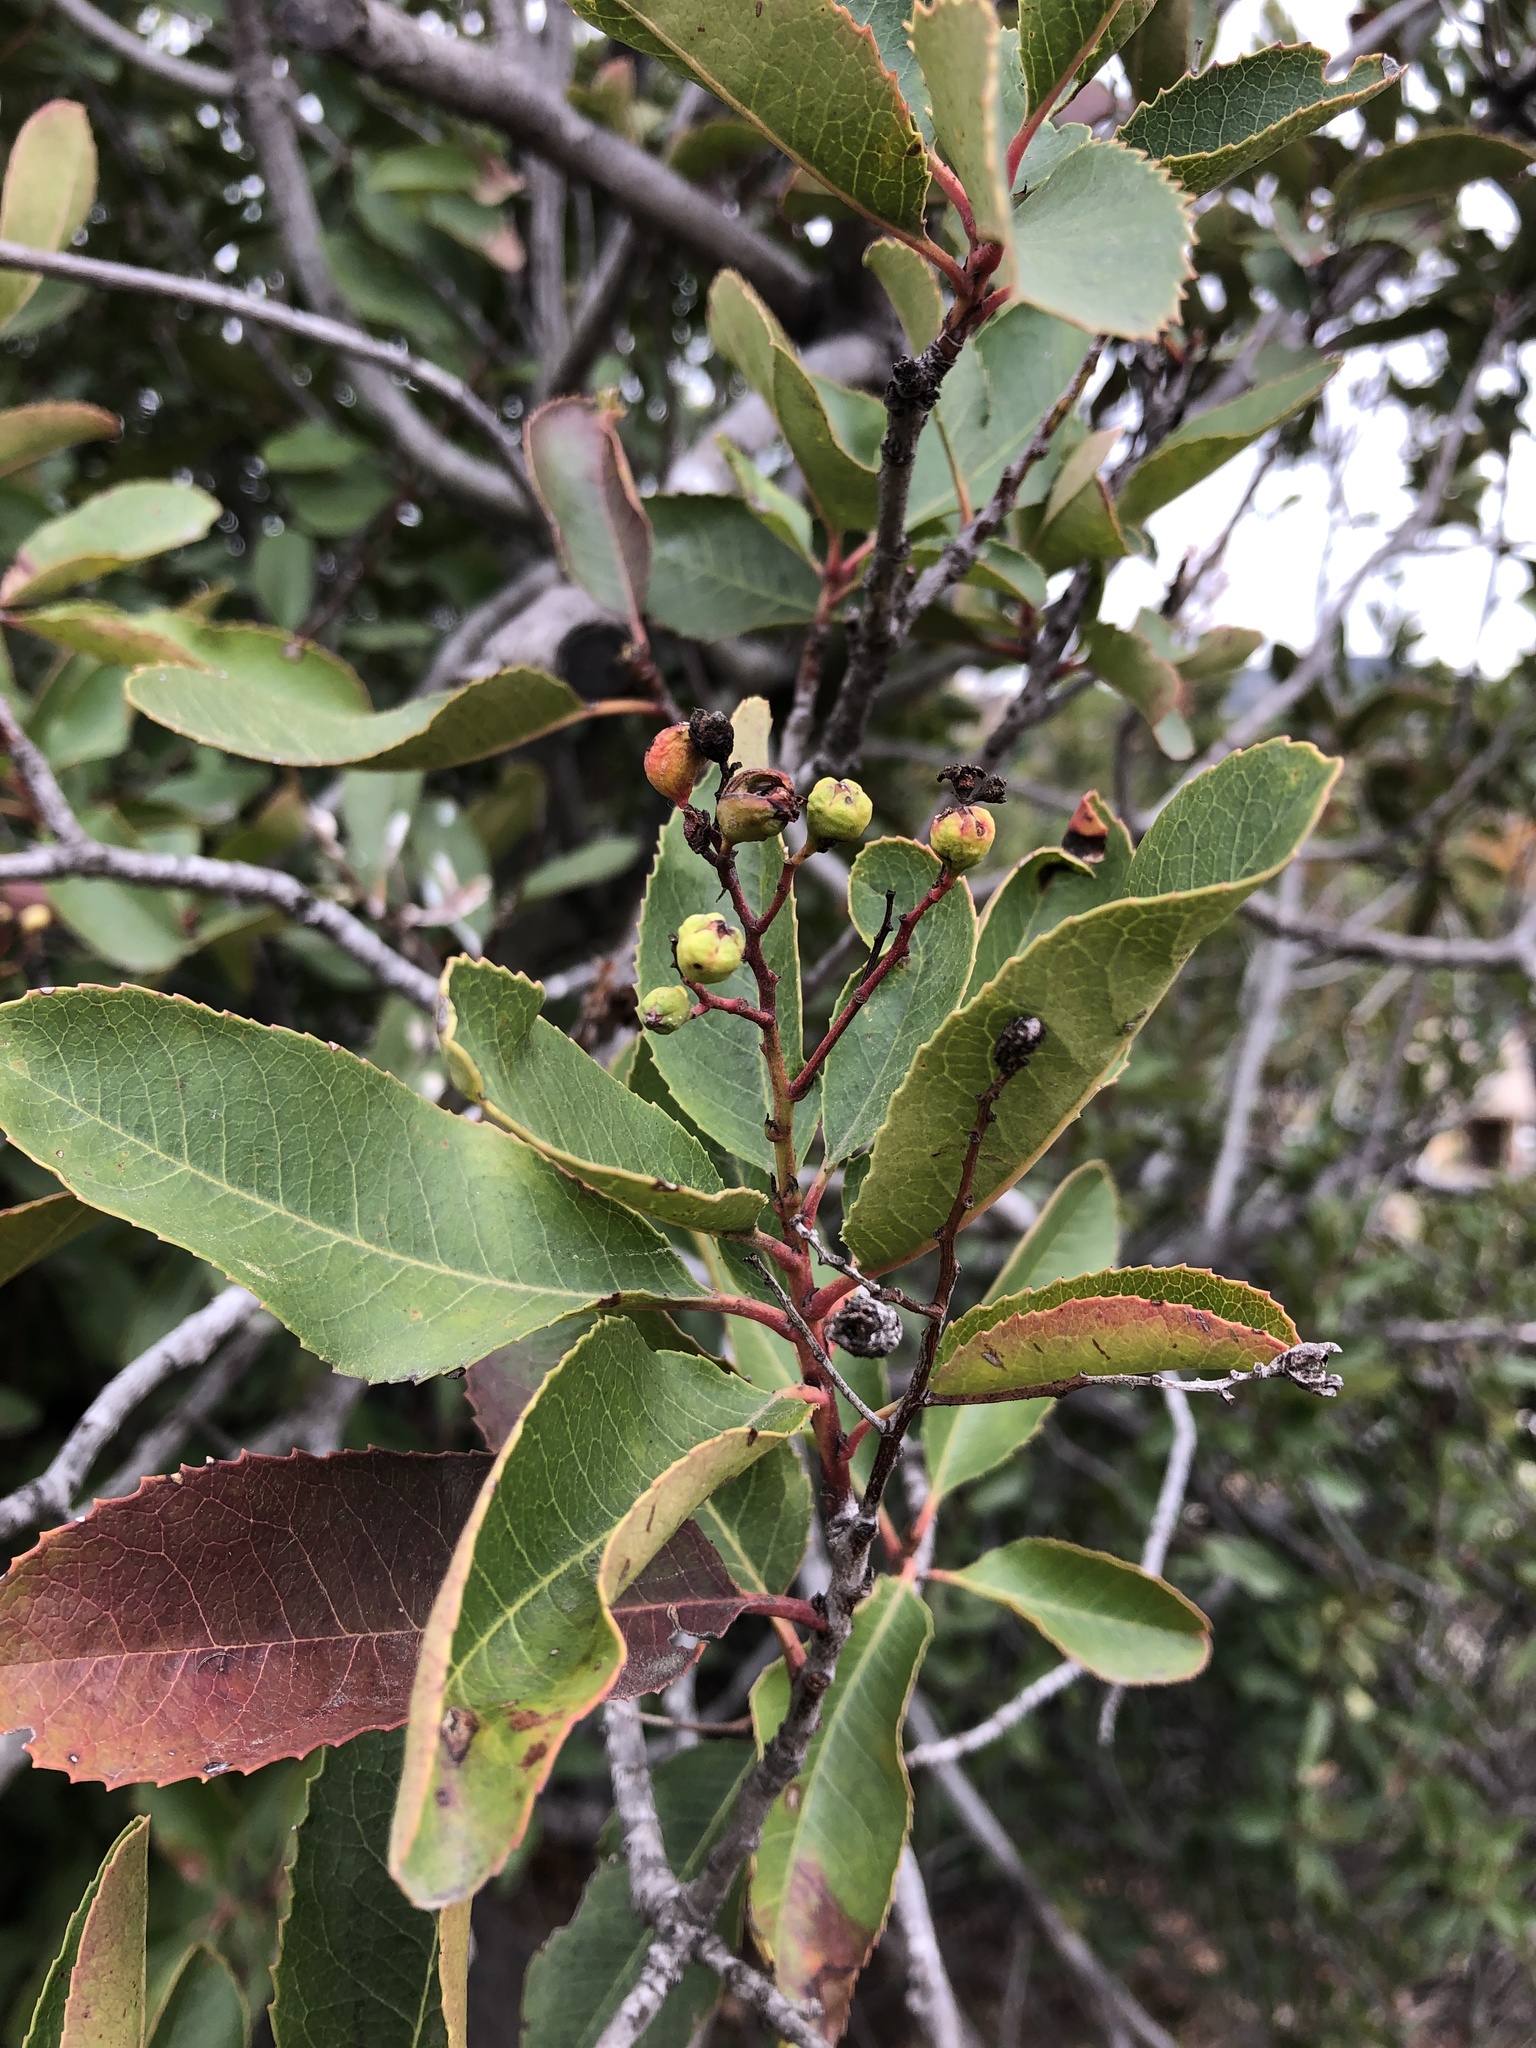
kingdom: Plantae
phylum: Tracheophyta
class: Magnoliopsida
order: Rosales
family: Rosaceae
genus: Heteromeles
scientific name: Heteromeles arbutifolia
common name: California-holly
